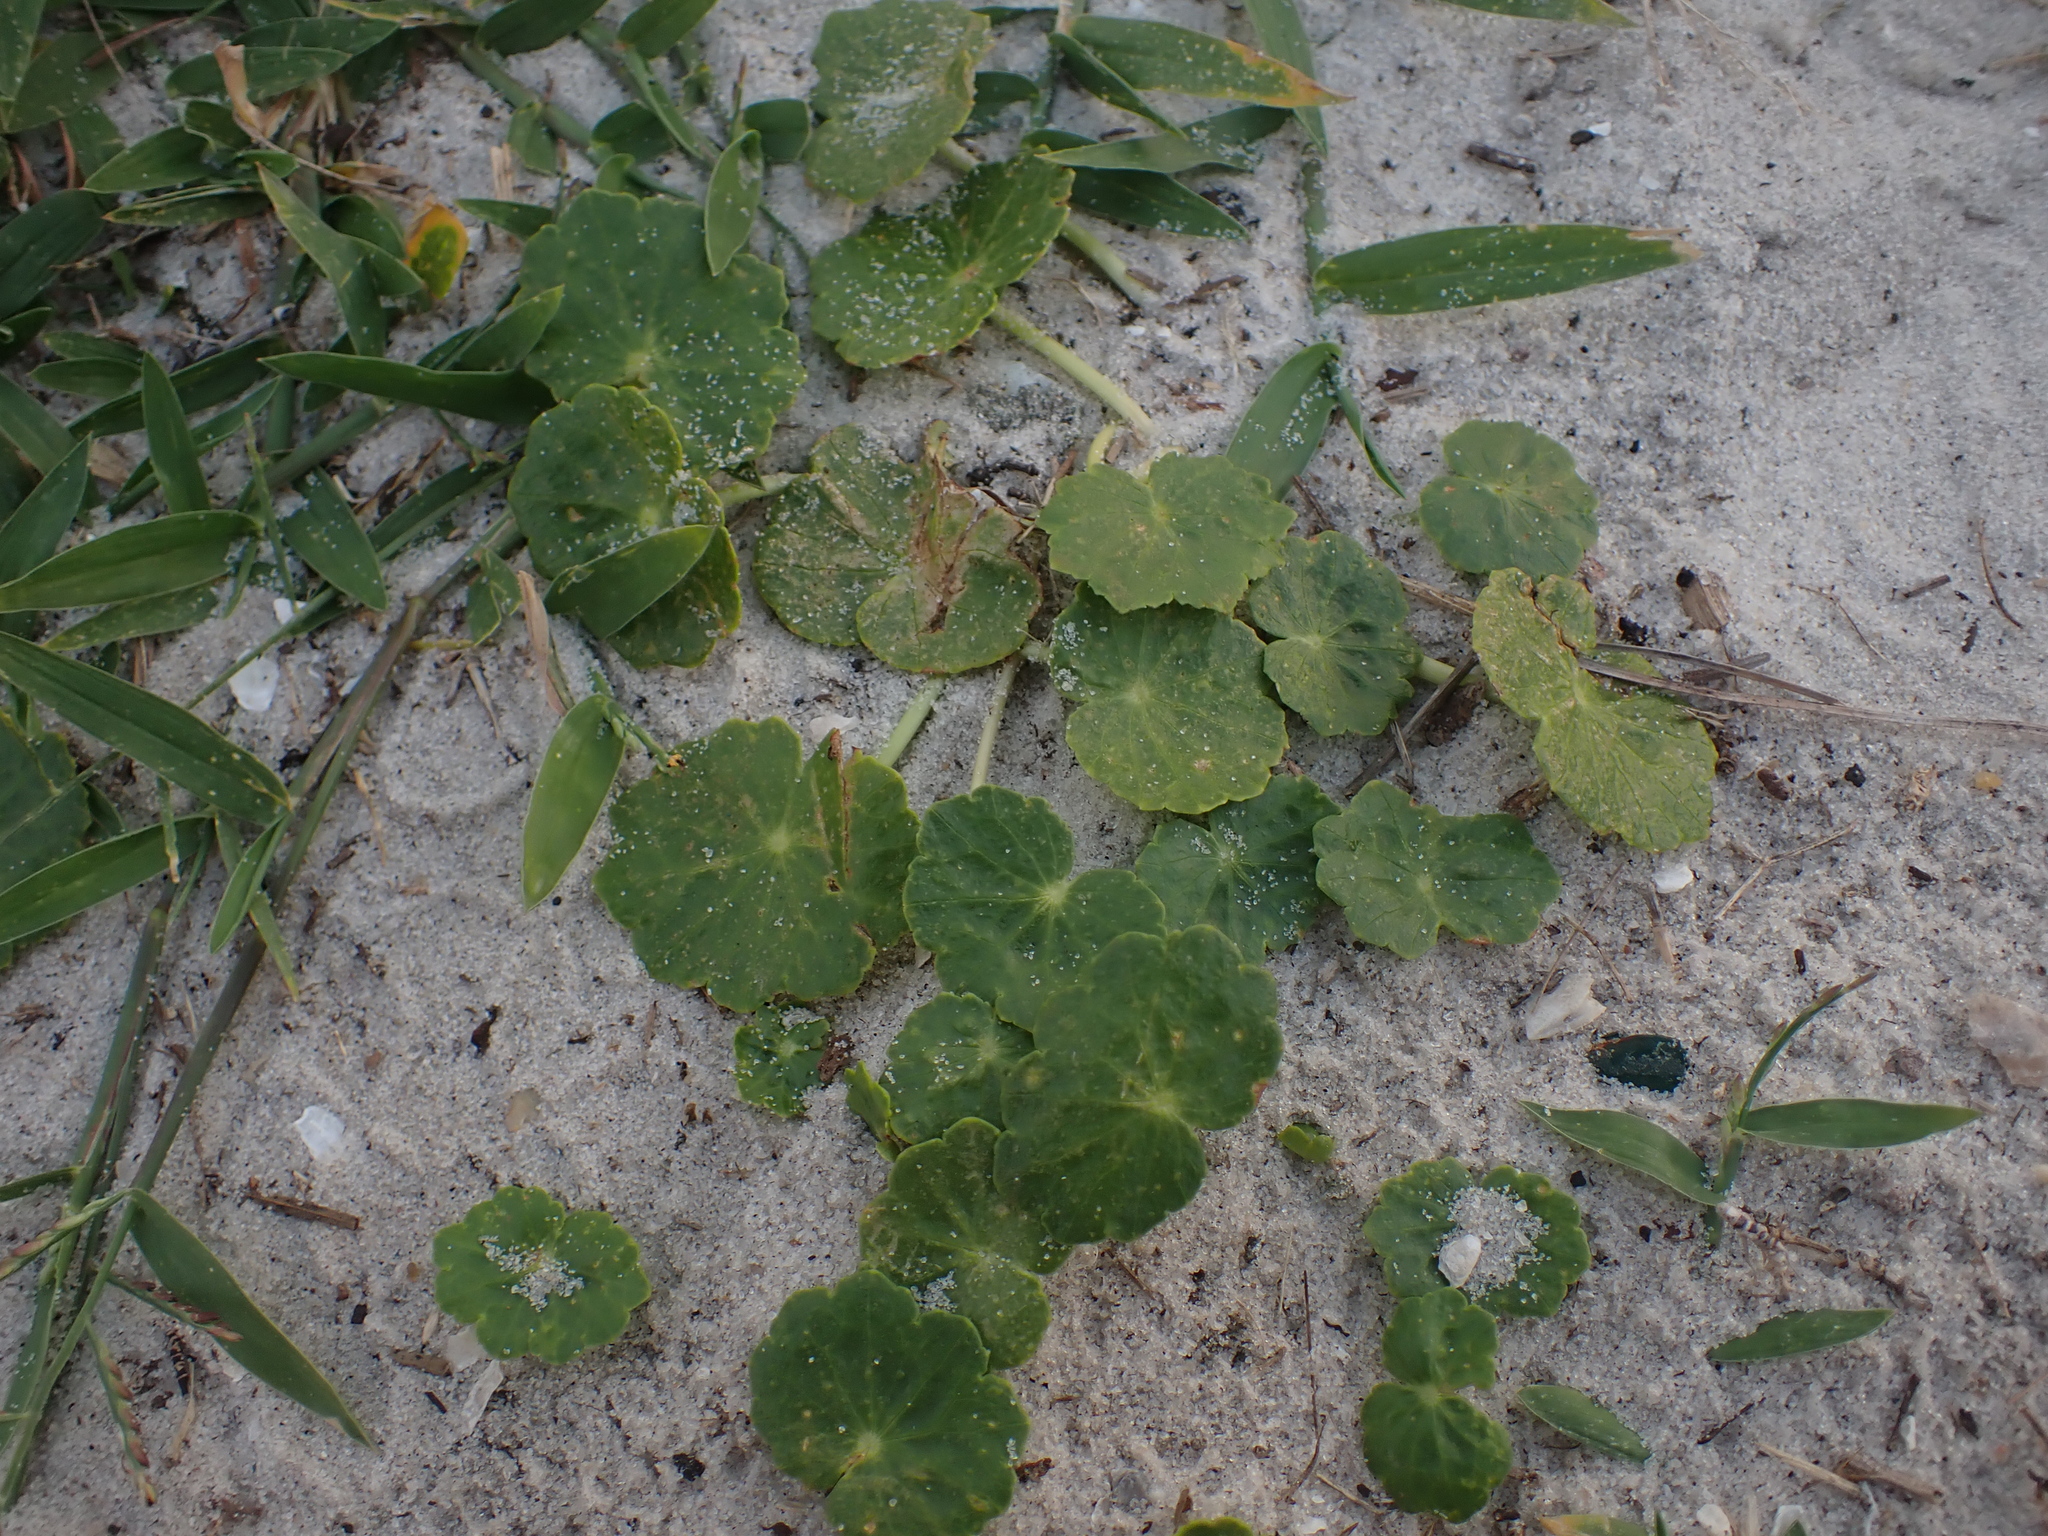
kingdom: Plantae
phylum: Tracheophyta
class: Magnoliopsida
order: Apiales
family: Araliaceae
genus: Hydrocotyle
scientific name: Hydrocotyle bonariensis
